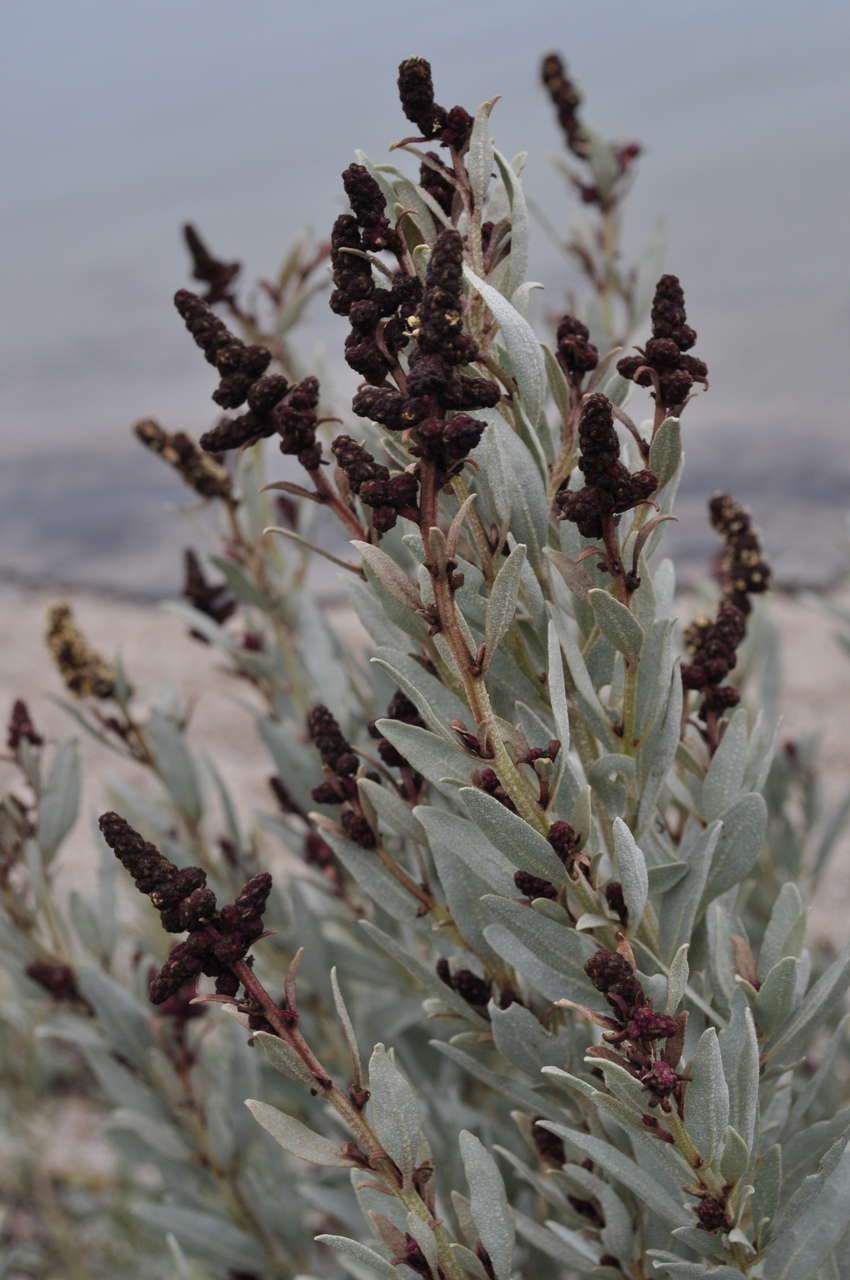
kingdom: Plantae
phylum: Tracheophyta
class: Magnoliopsida
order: Caryophyllales
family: Amaranthaceae
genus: Atriplex
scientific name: Atriplex cinerea
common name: Grey saltbush
